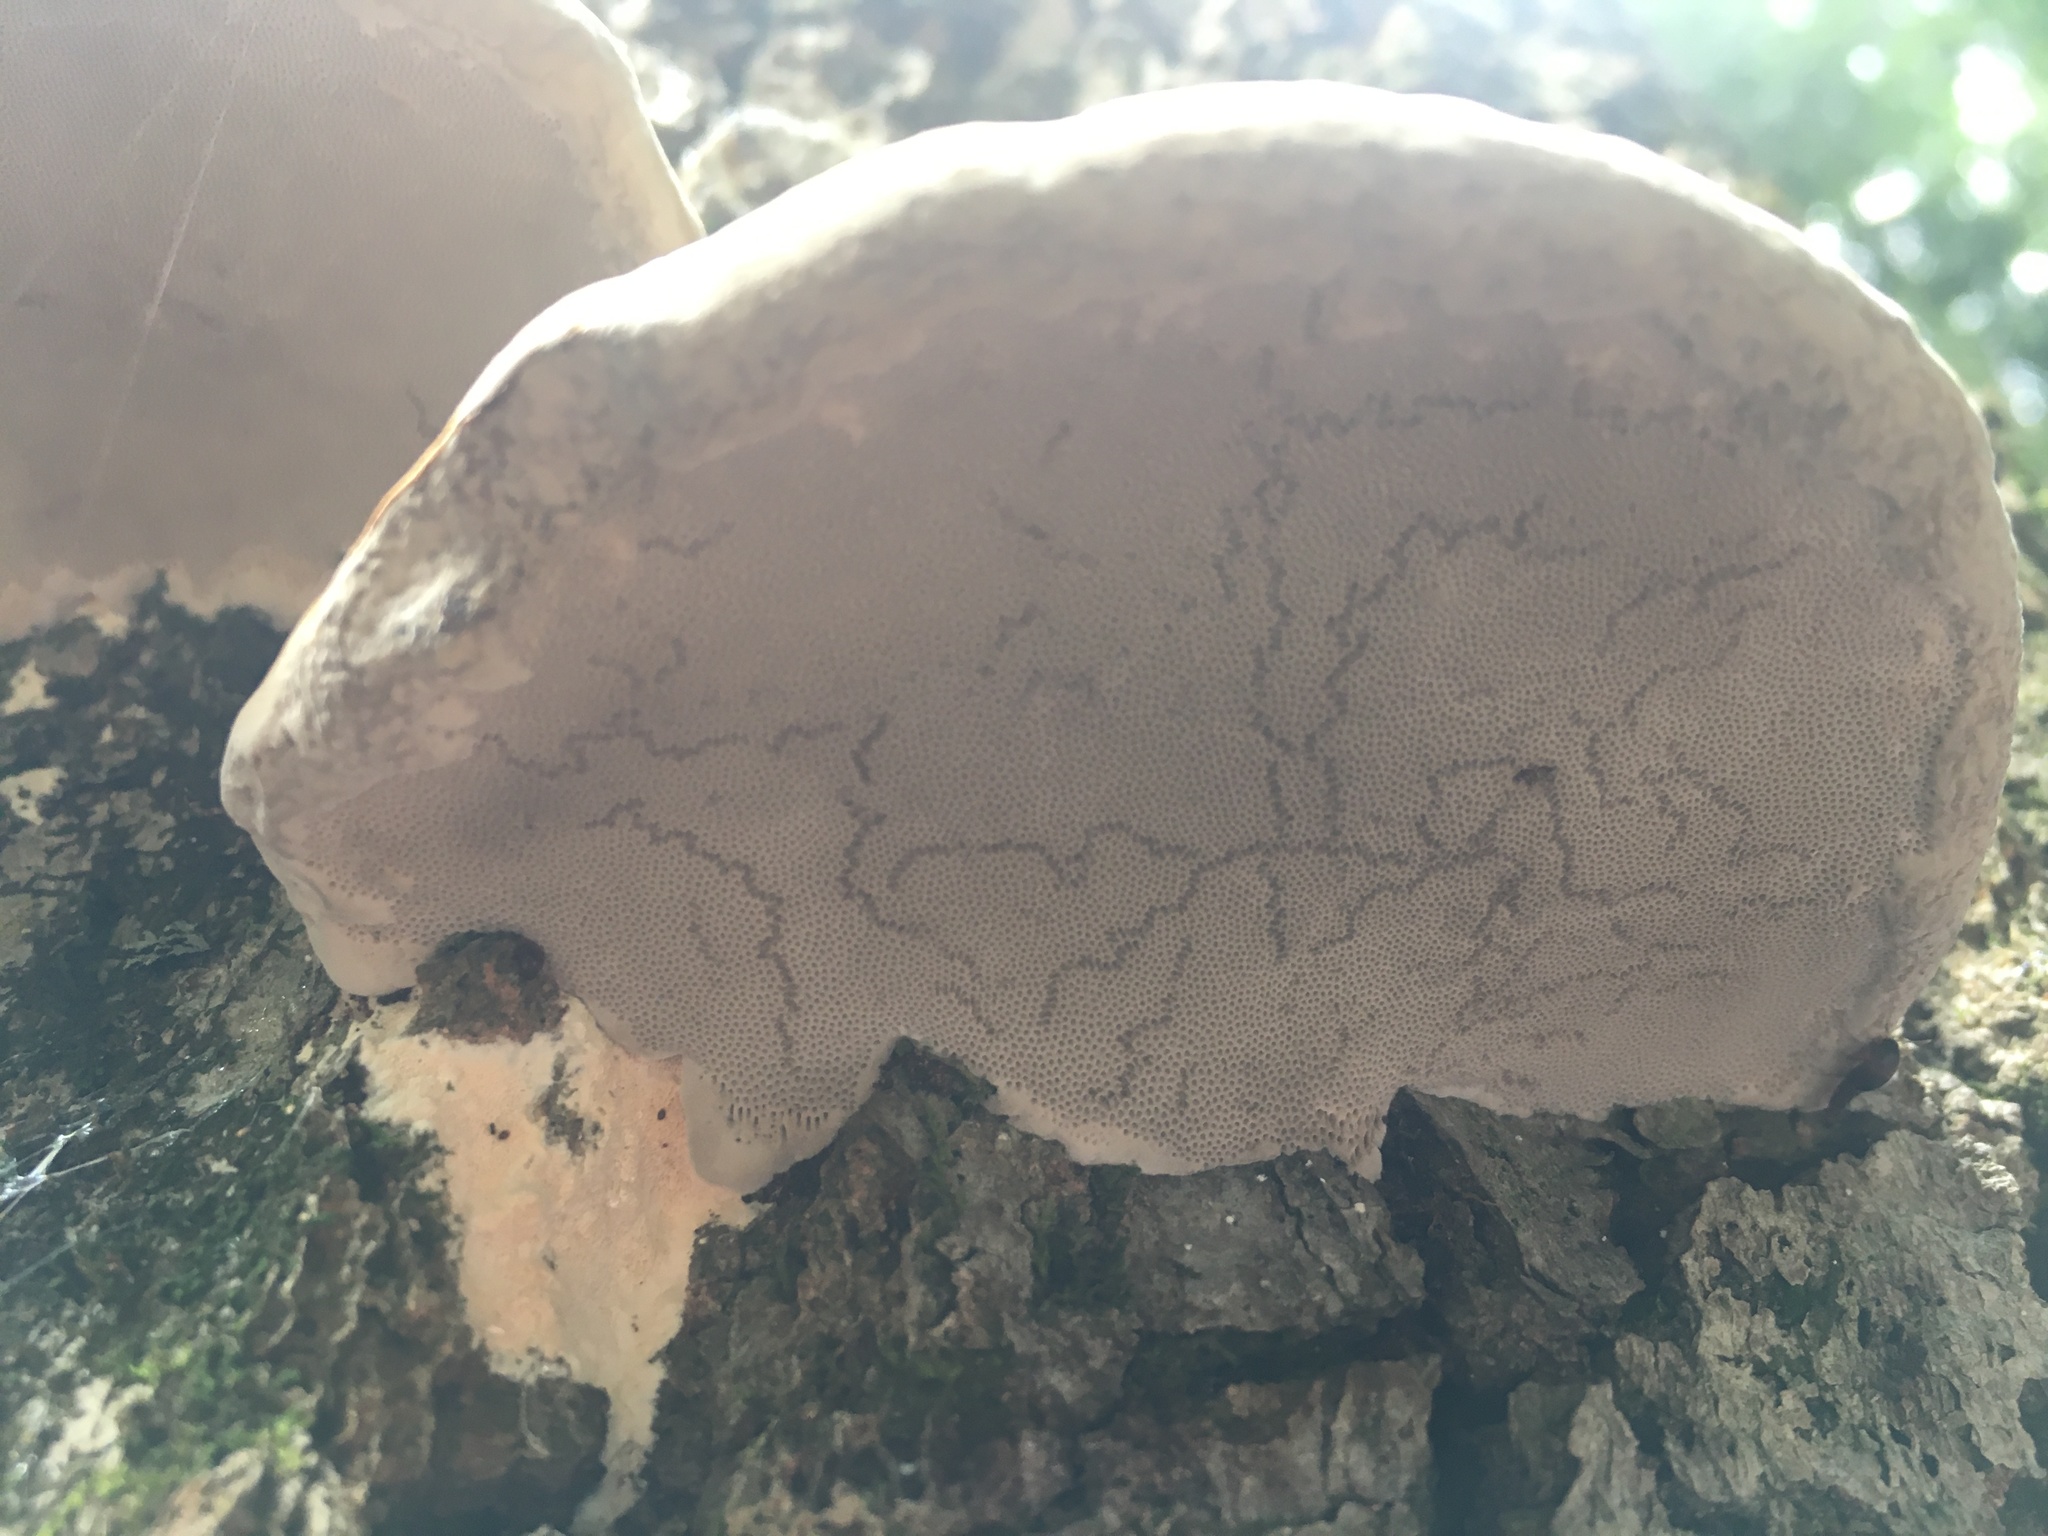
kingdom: Fungi
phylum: Basidiomycota
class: Agaricomycetes
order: Polyporales
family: Polyporaceae
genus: Fomes
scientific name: Fomes fomentarius
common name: Hoof fungus
